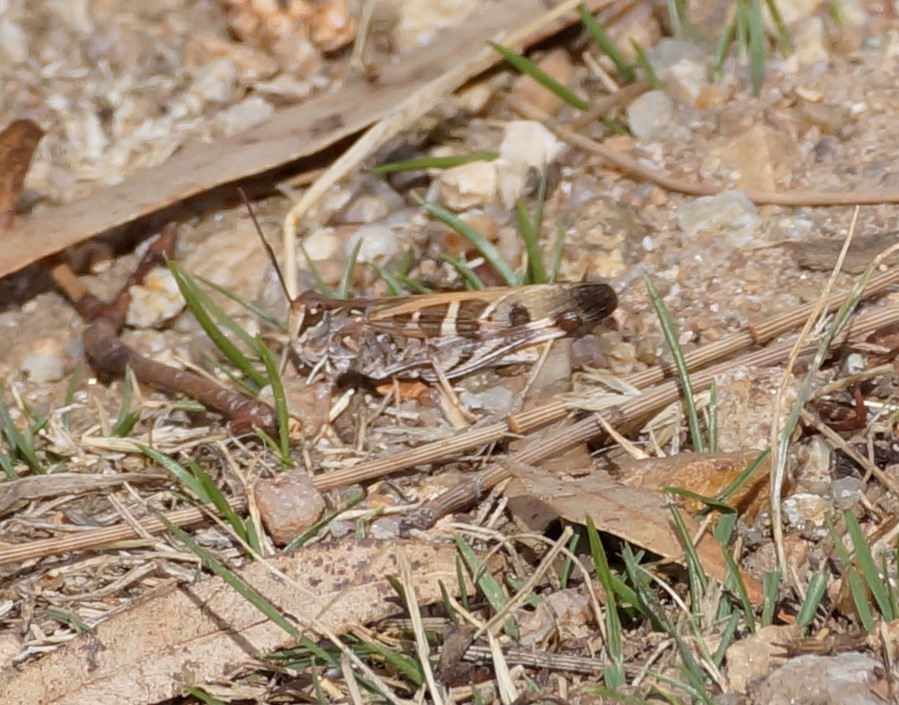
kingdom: Animalia
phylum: Arthropoda
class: Insecta
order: Orthoptera
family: Acrididae
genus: Oedaleus
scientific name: Oedaleus australis
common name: Eastern oedaleus
